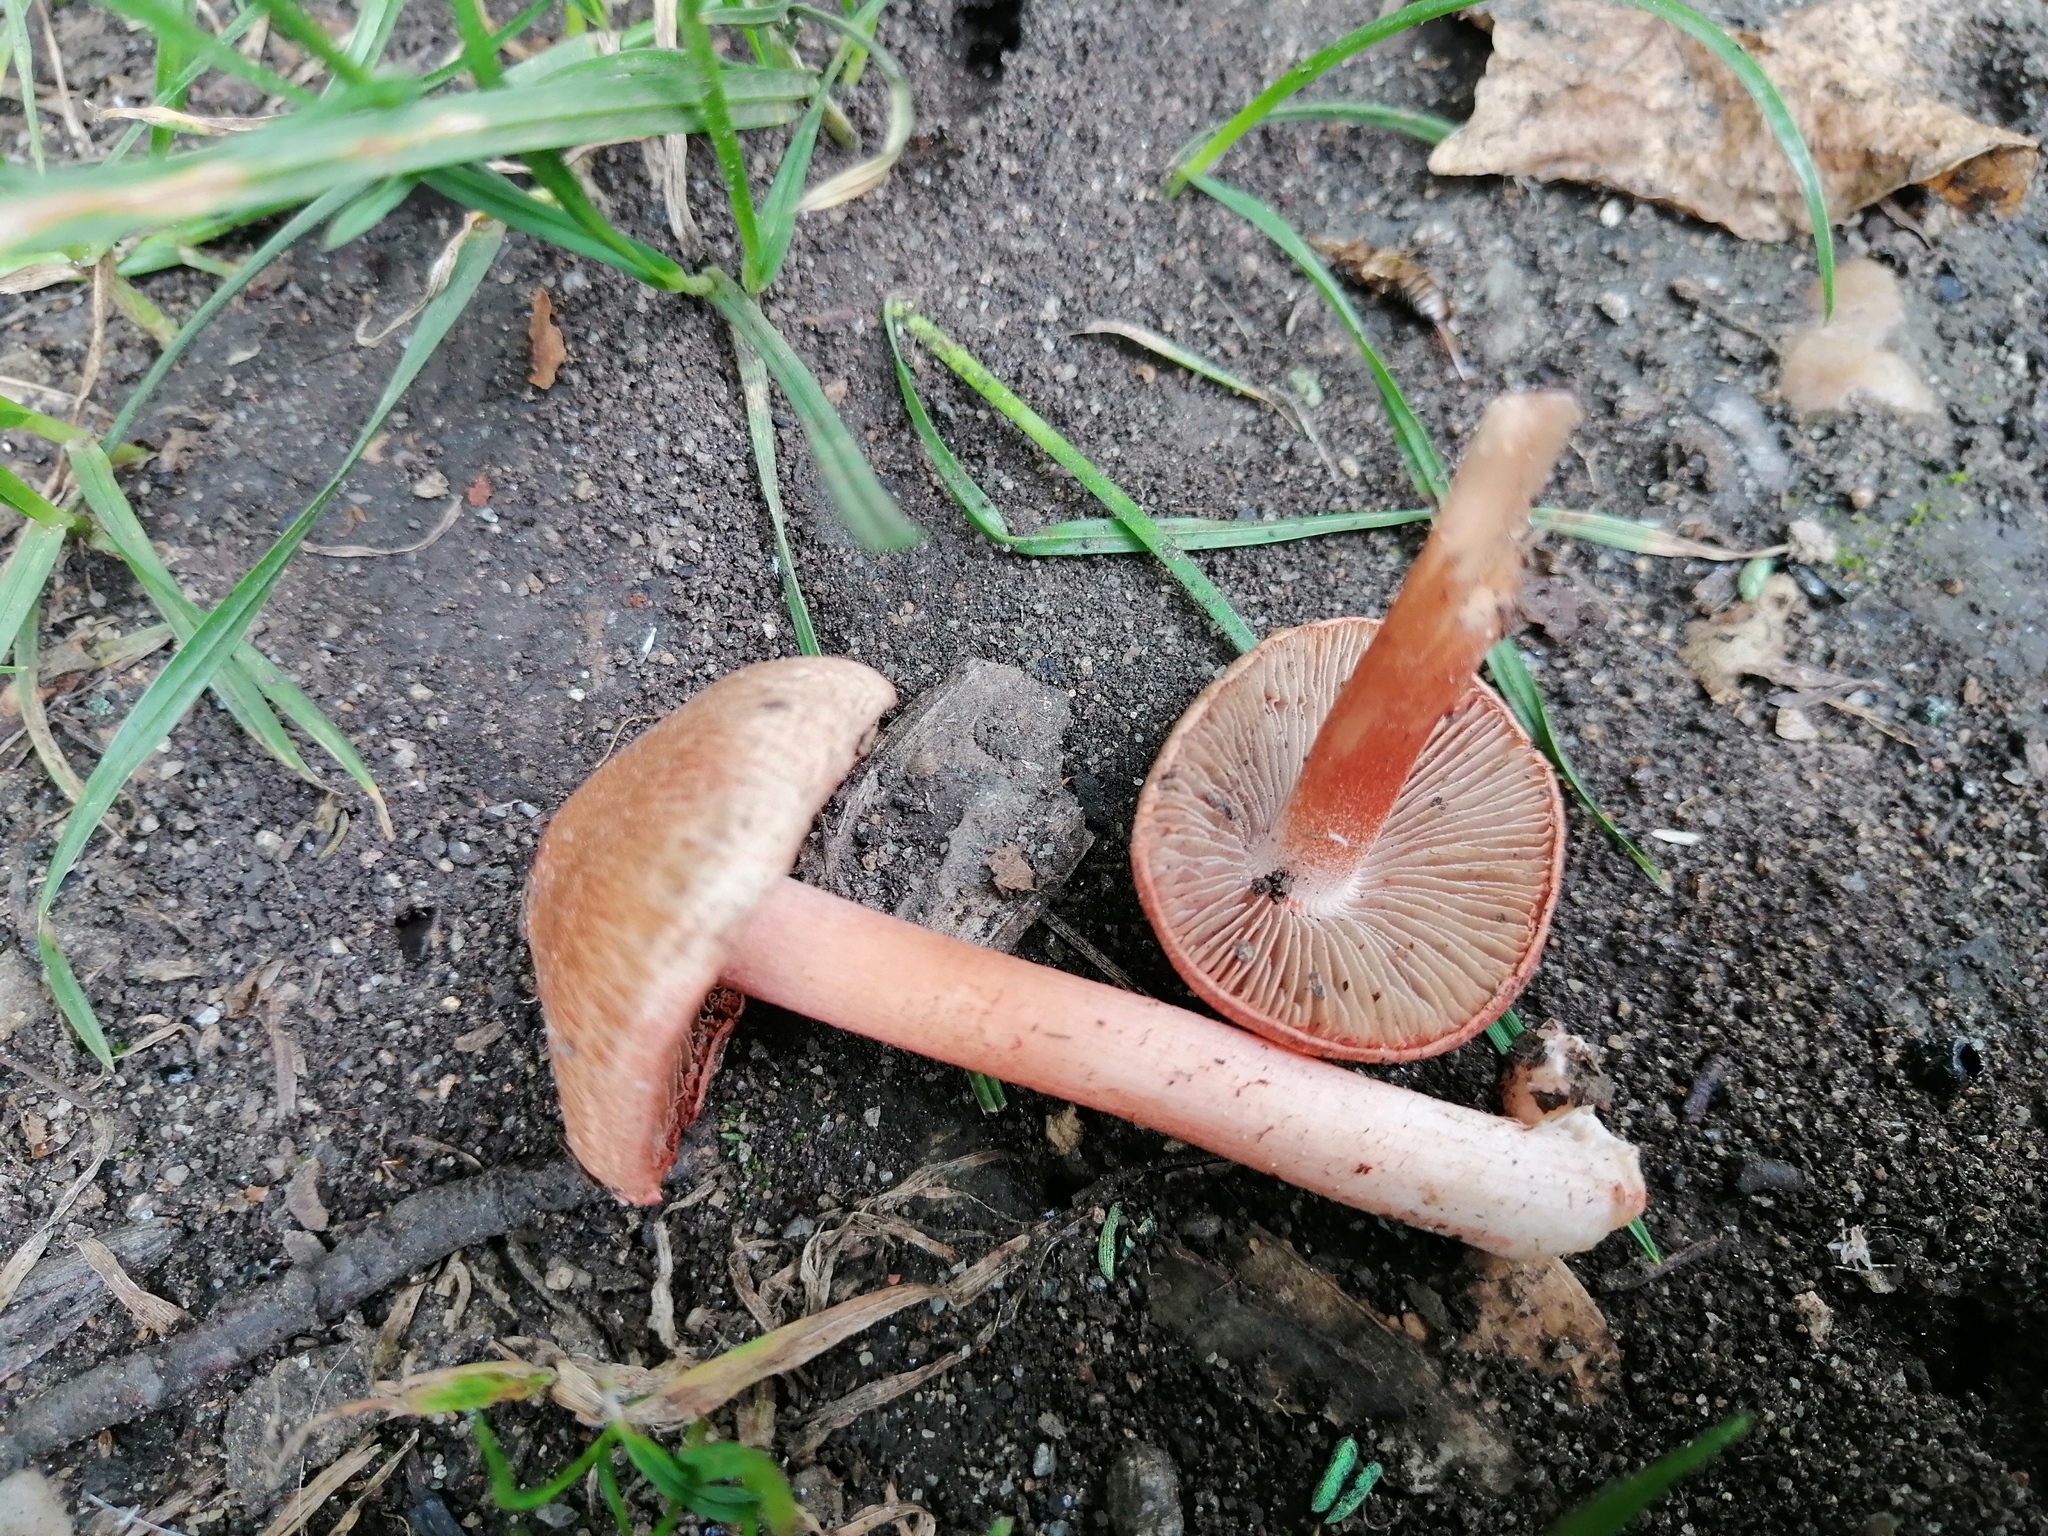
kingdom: Fungi
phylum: Basidiomycota
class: Agaricomycetes
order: Agaricales
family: Inocybaceae
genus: Inocybe
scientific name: Inocybe godeyi
